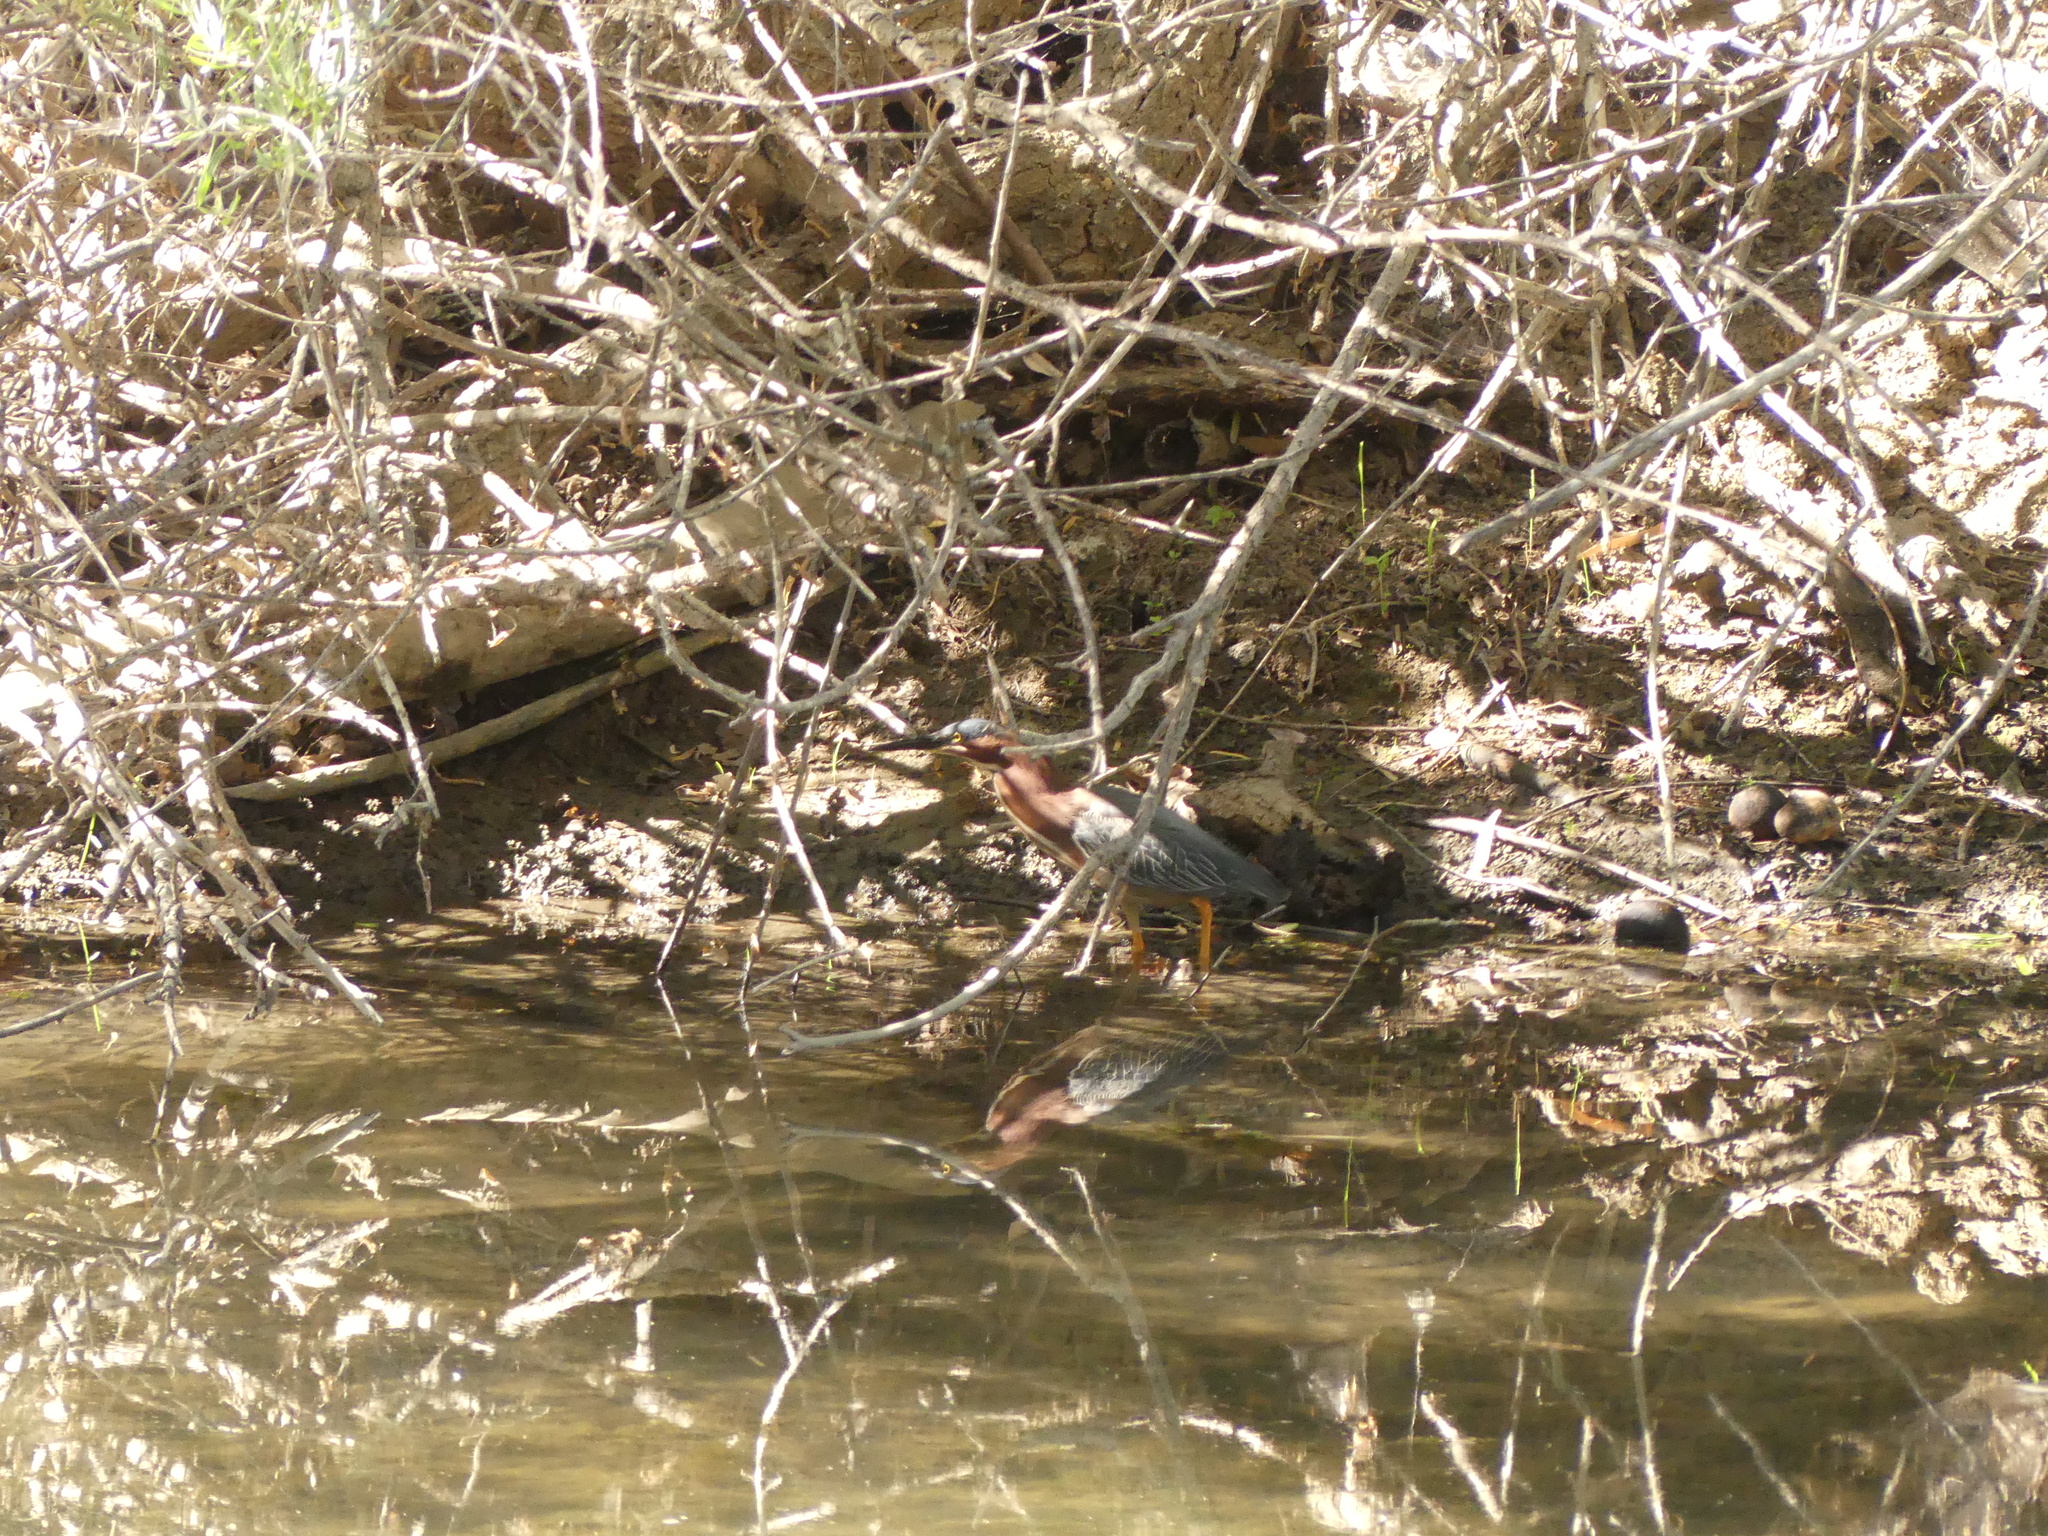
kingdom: Animalia
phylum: Chordata
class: Aves
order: Pelecaniformes
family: Ardeidae
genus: Butorides
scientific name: Butorides virescens
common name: Green heron
